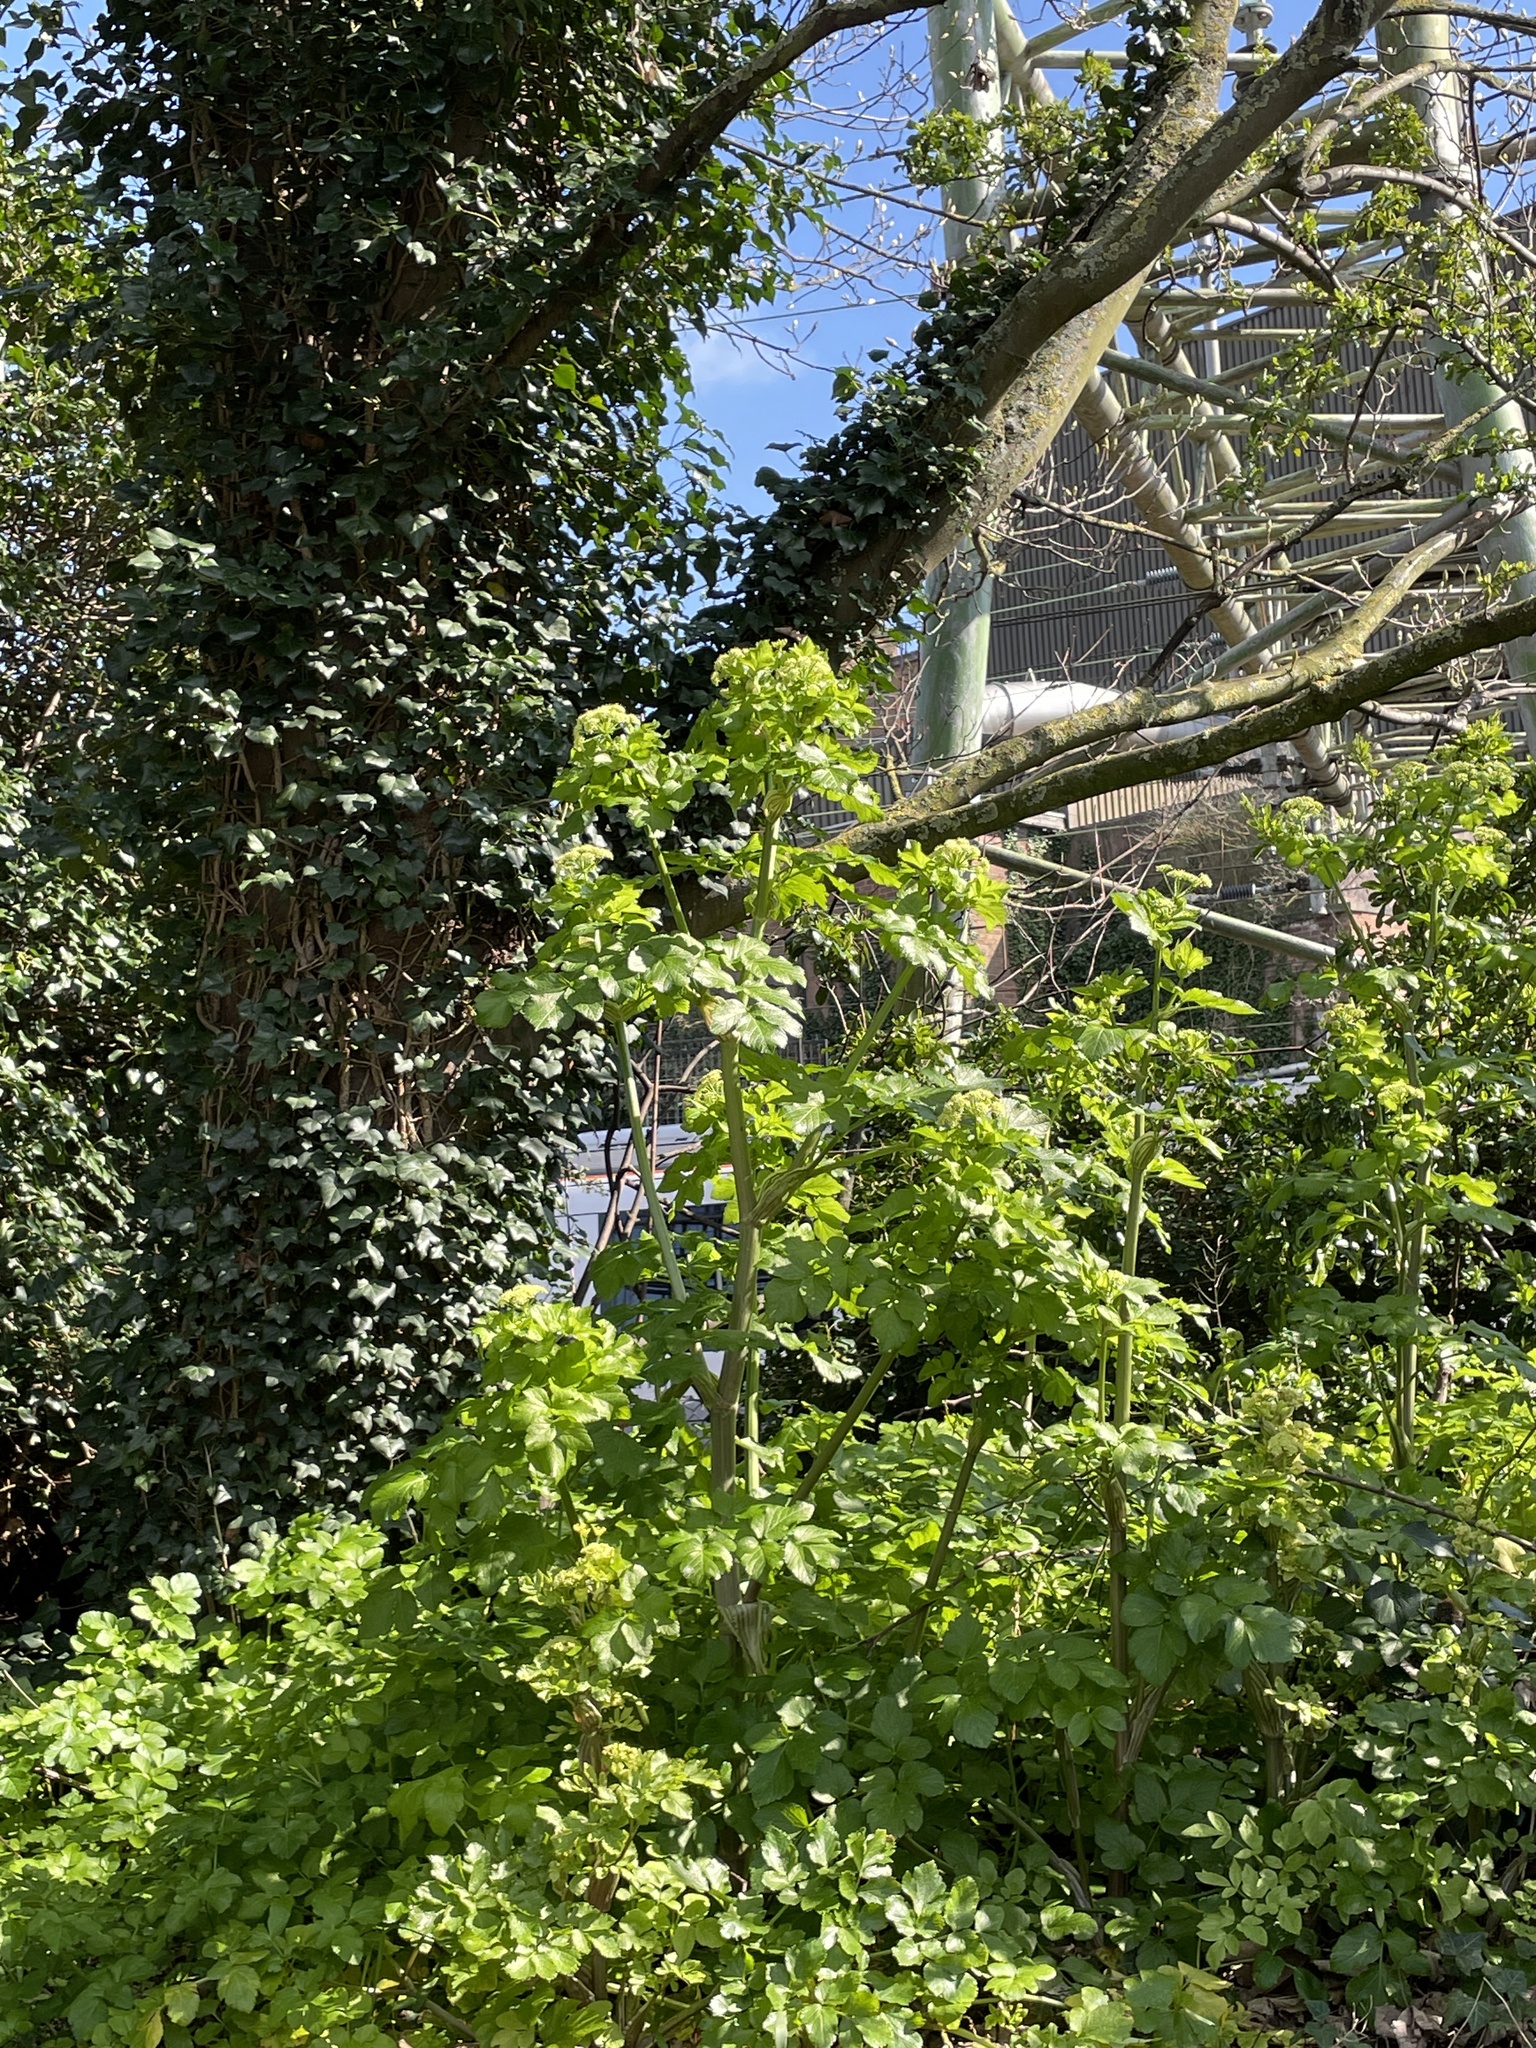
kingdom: Plantae
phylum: Tracheophyta
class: Magnoliopsida
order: Apiales
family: Apiaceae
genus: Smyrnium
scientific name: Smyrnium olusatrum
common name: Alexanders
